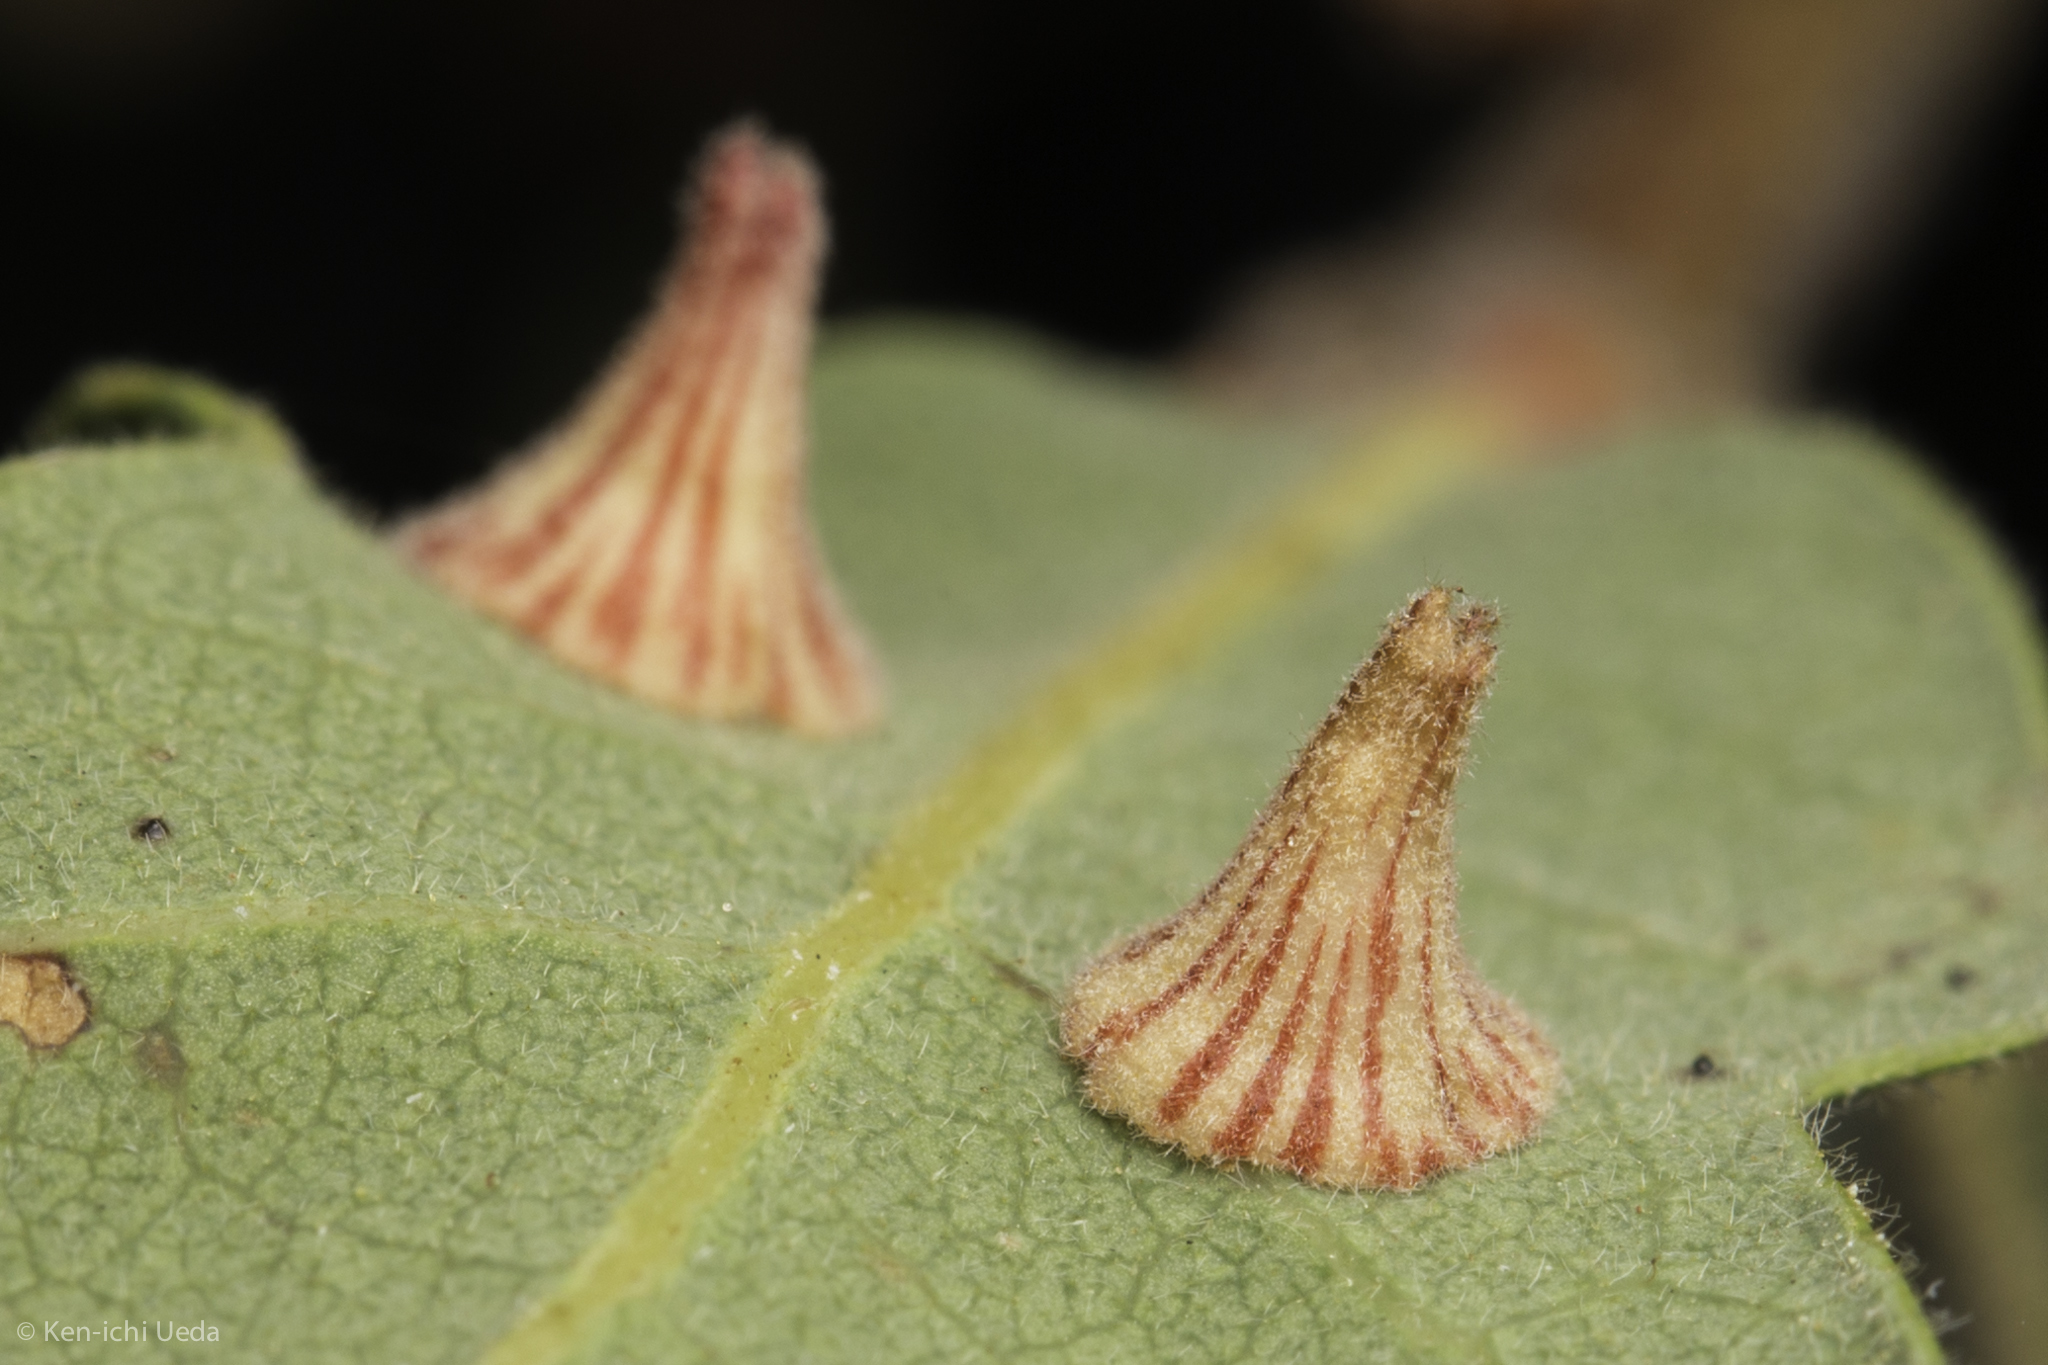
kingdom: Animalia
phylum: Arthropoda
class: Insecta
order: Hymenoptera
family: Cynipidae
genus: Andricus
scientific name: Andricus
